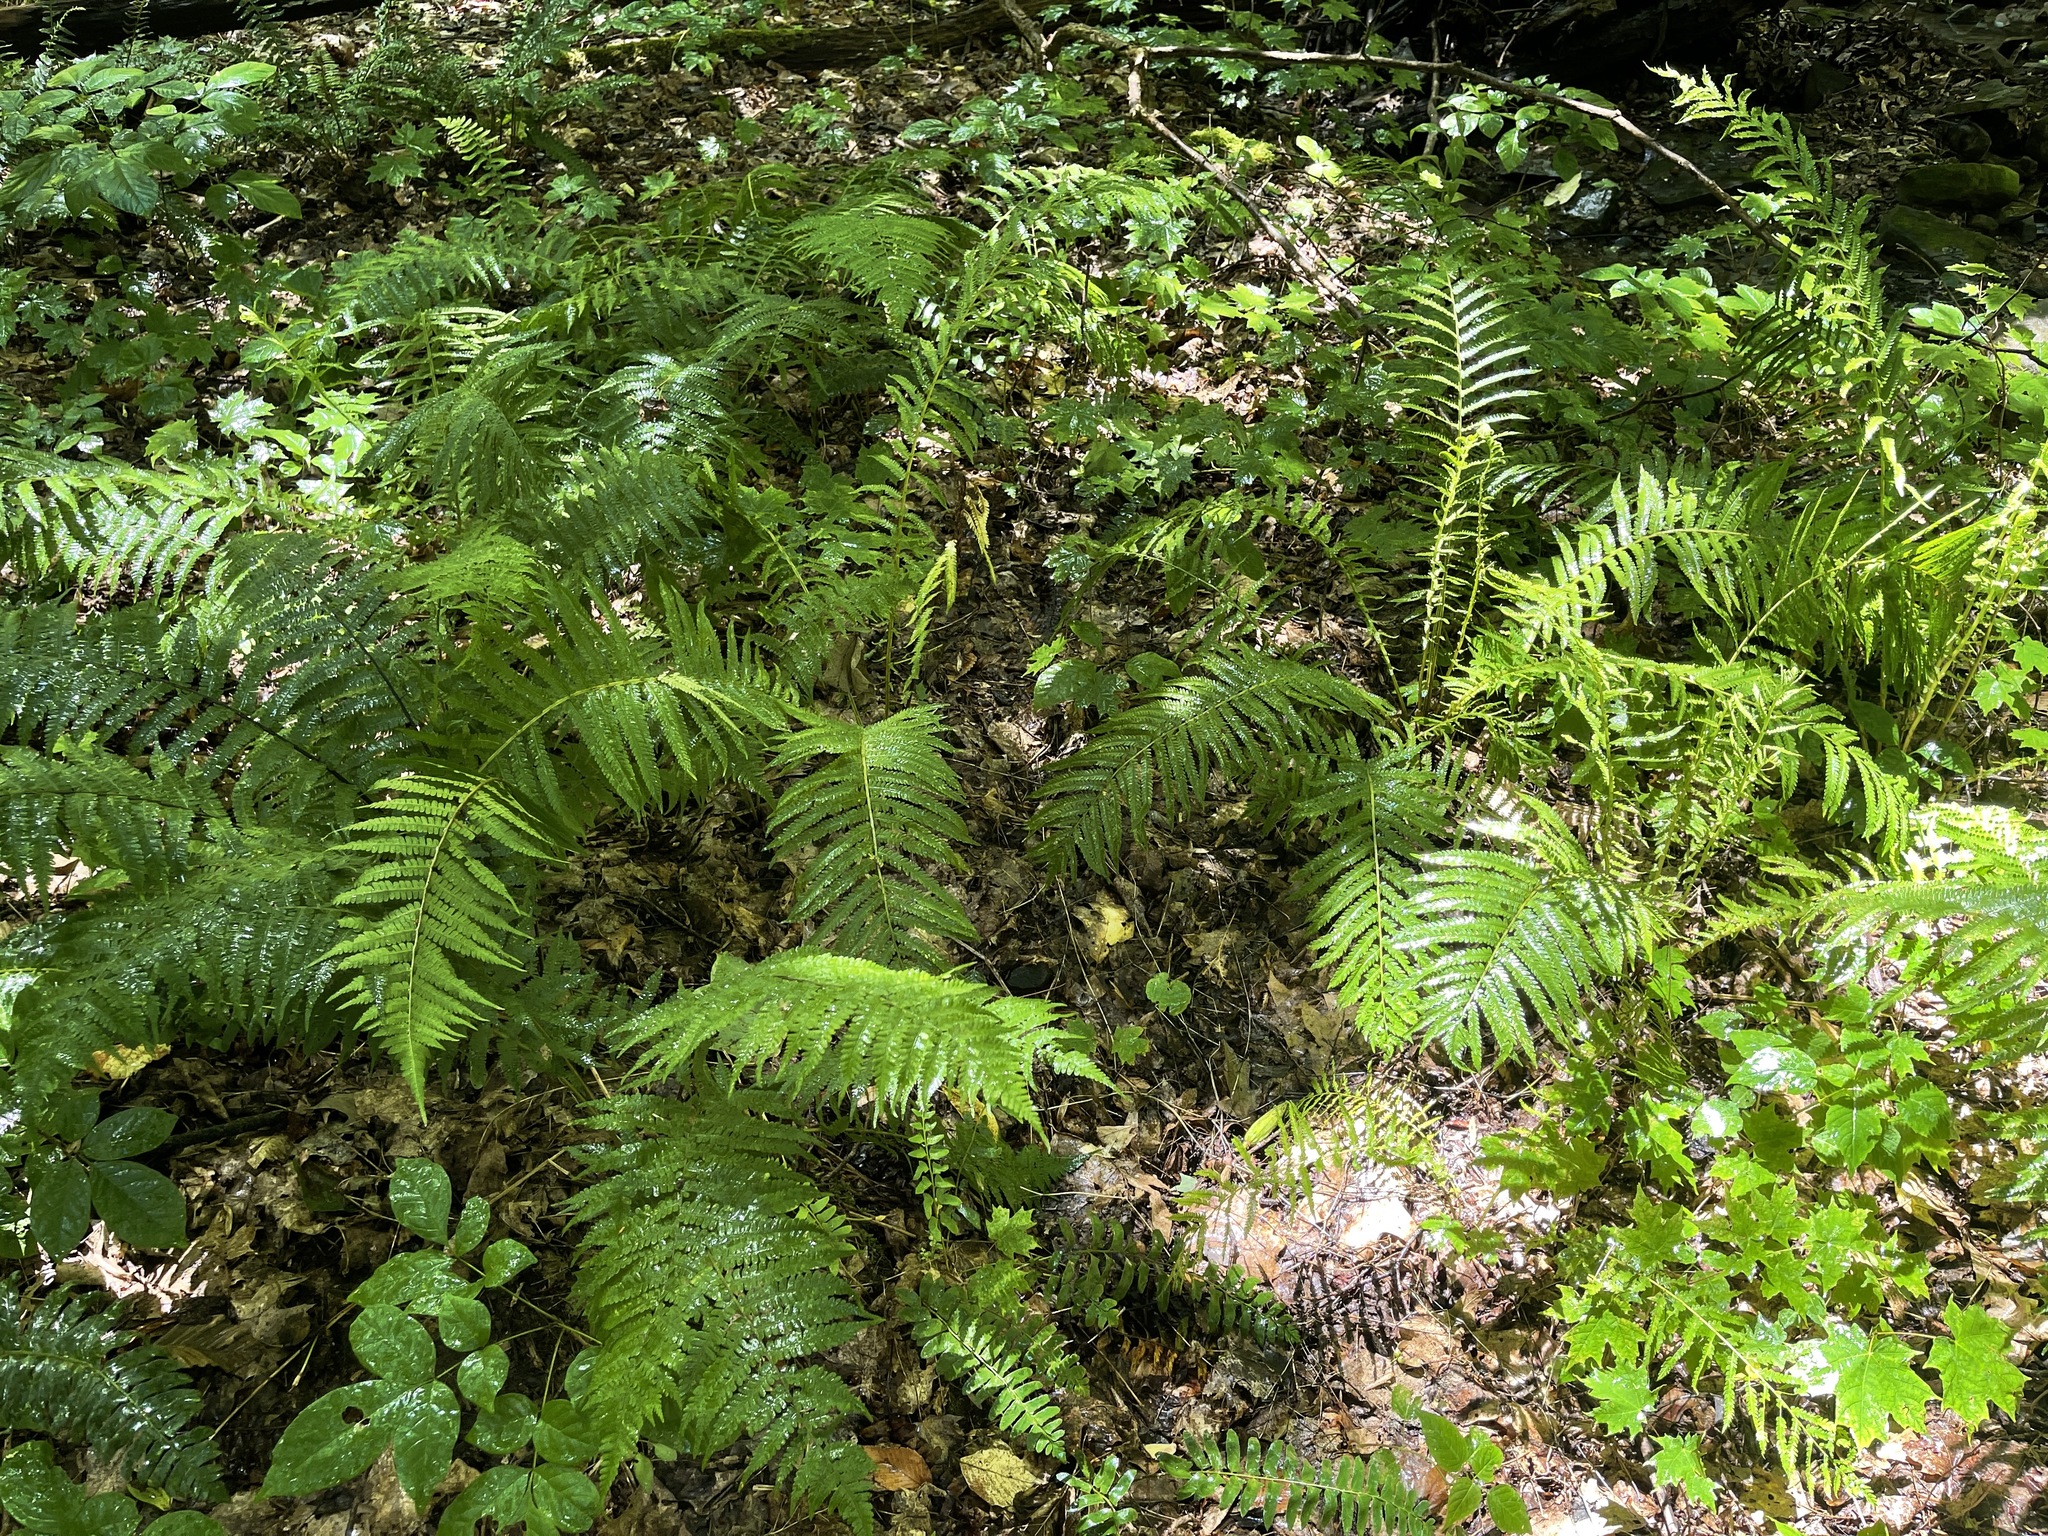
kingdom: Plantae
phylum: Tracheophyta
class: Polypodiopsida
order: Polypodiales
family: Onocleaceae
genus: Matteuccia
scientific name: Matteuccia struthiopteris
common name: Ostrich fern
